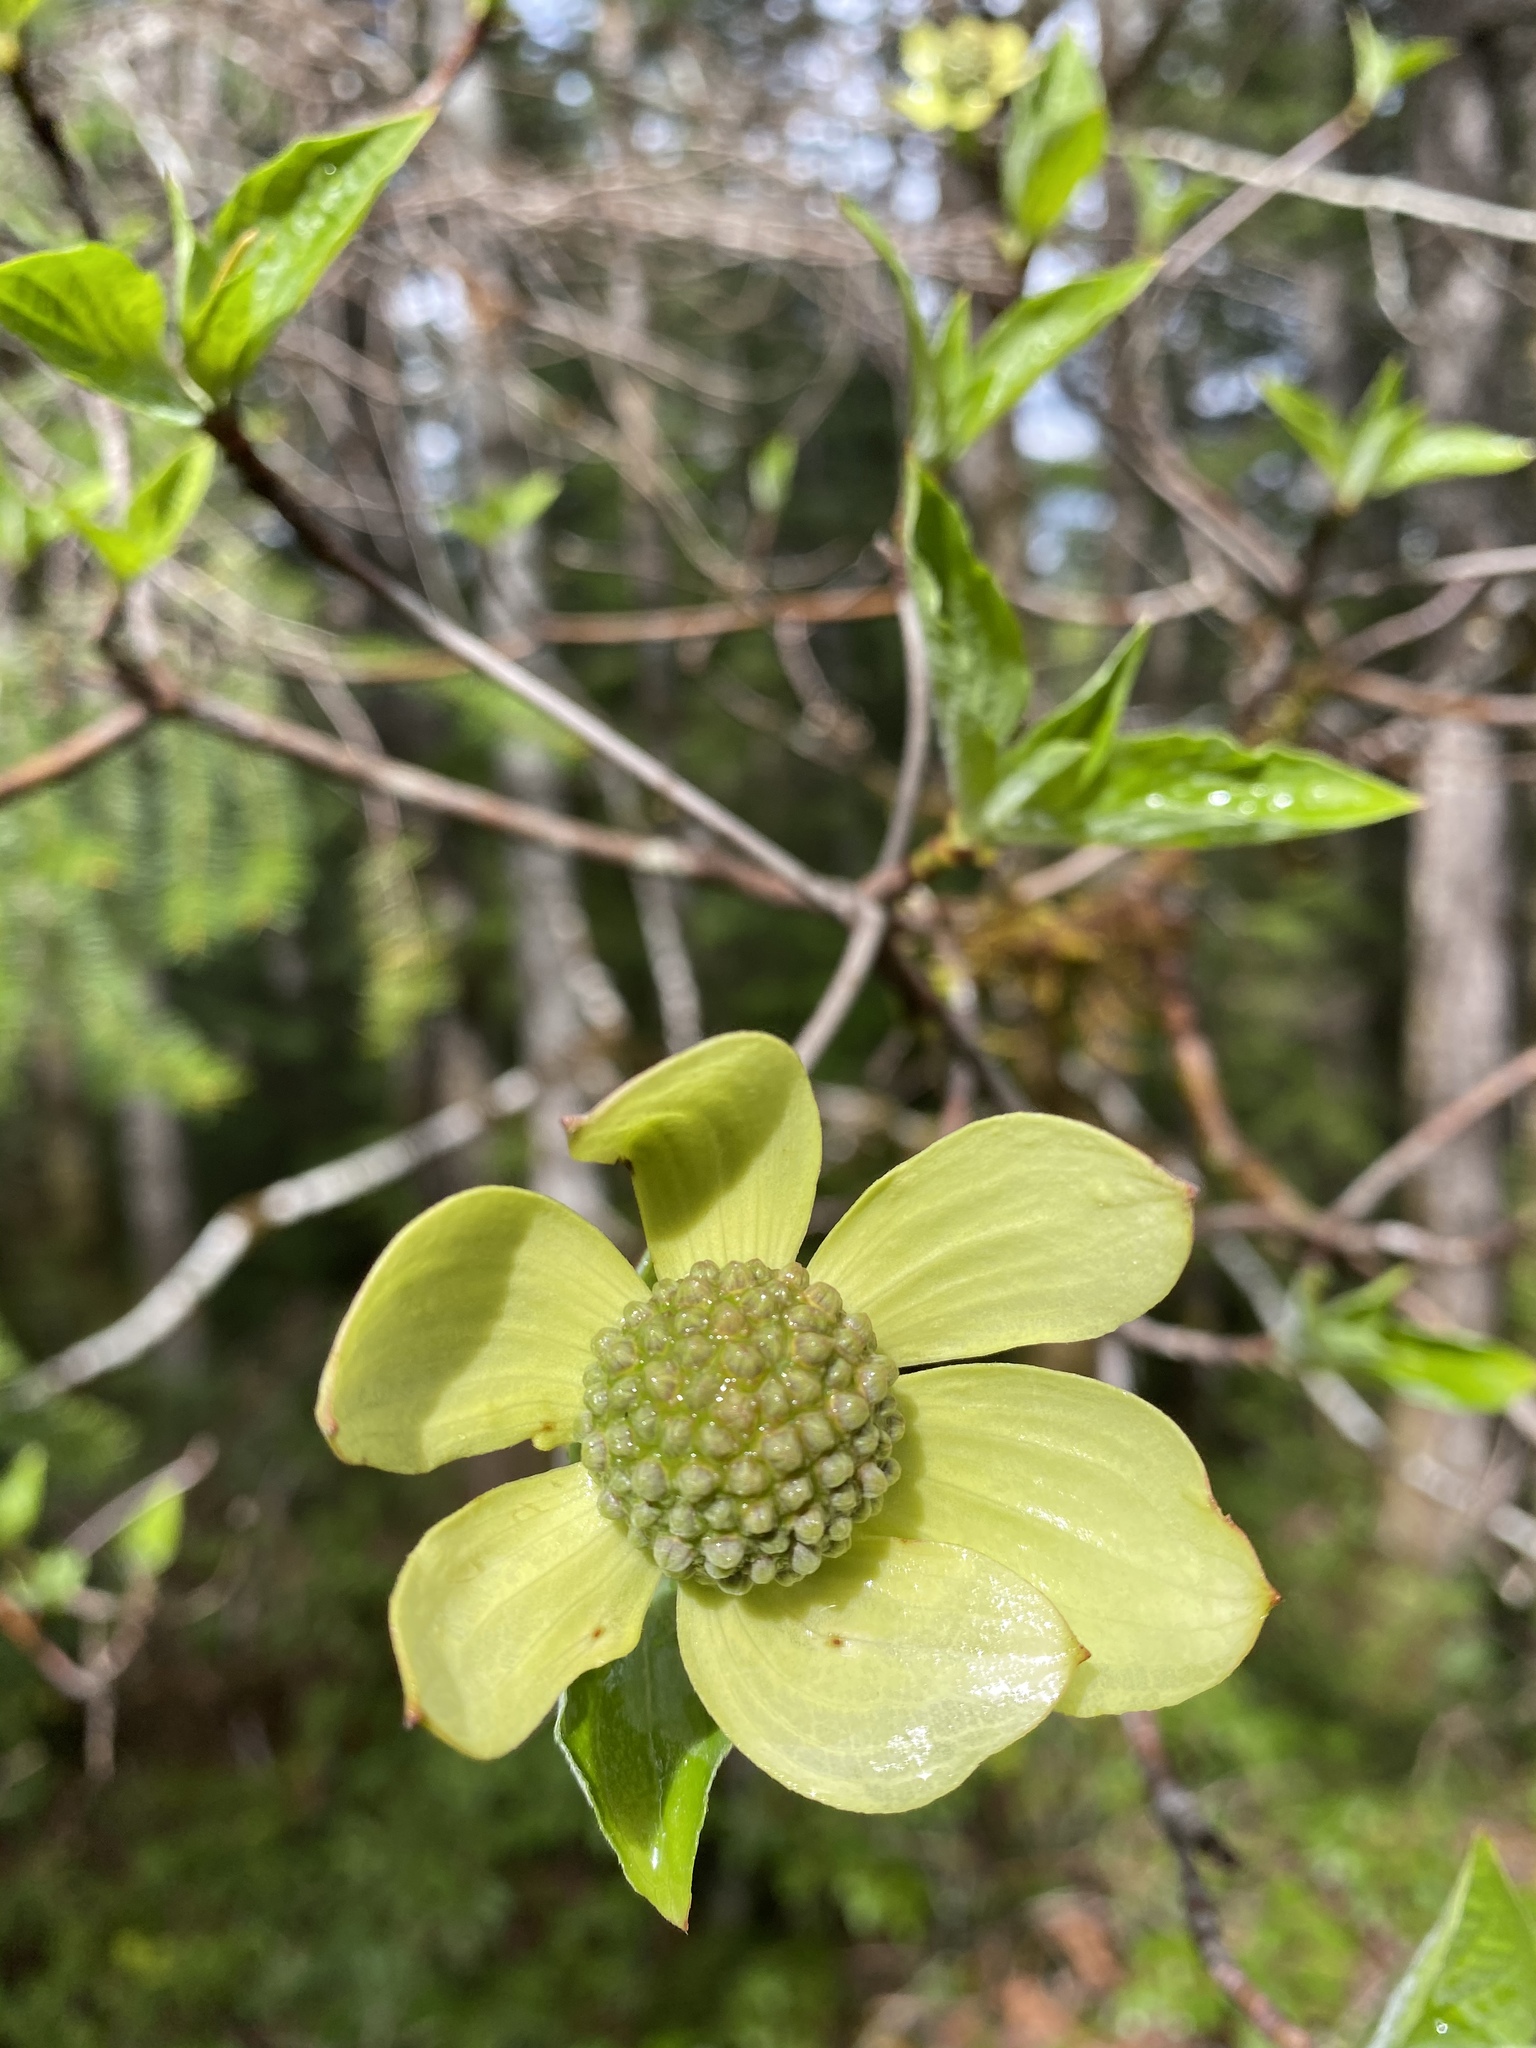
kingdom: Plantae
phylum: Tracheophyta
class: Magnoliopsida
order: Cornales
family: Cornaceae
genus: Cornus
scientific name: Cornus nuttallii
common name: Pacific dogwood
